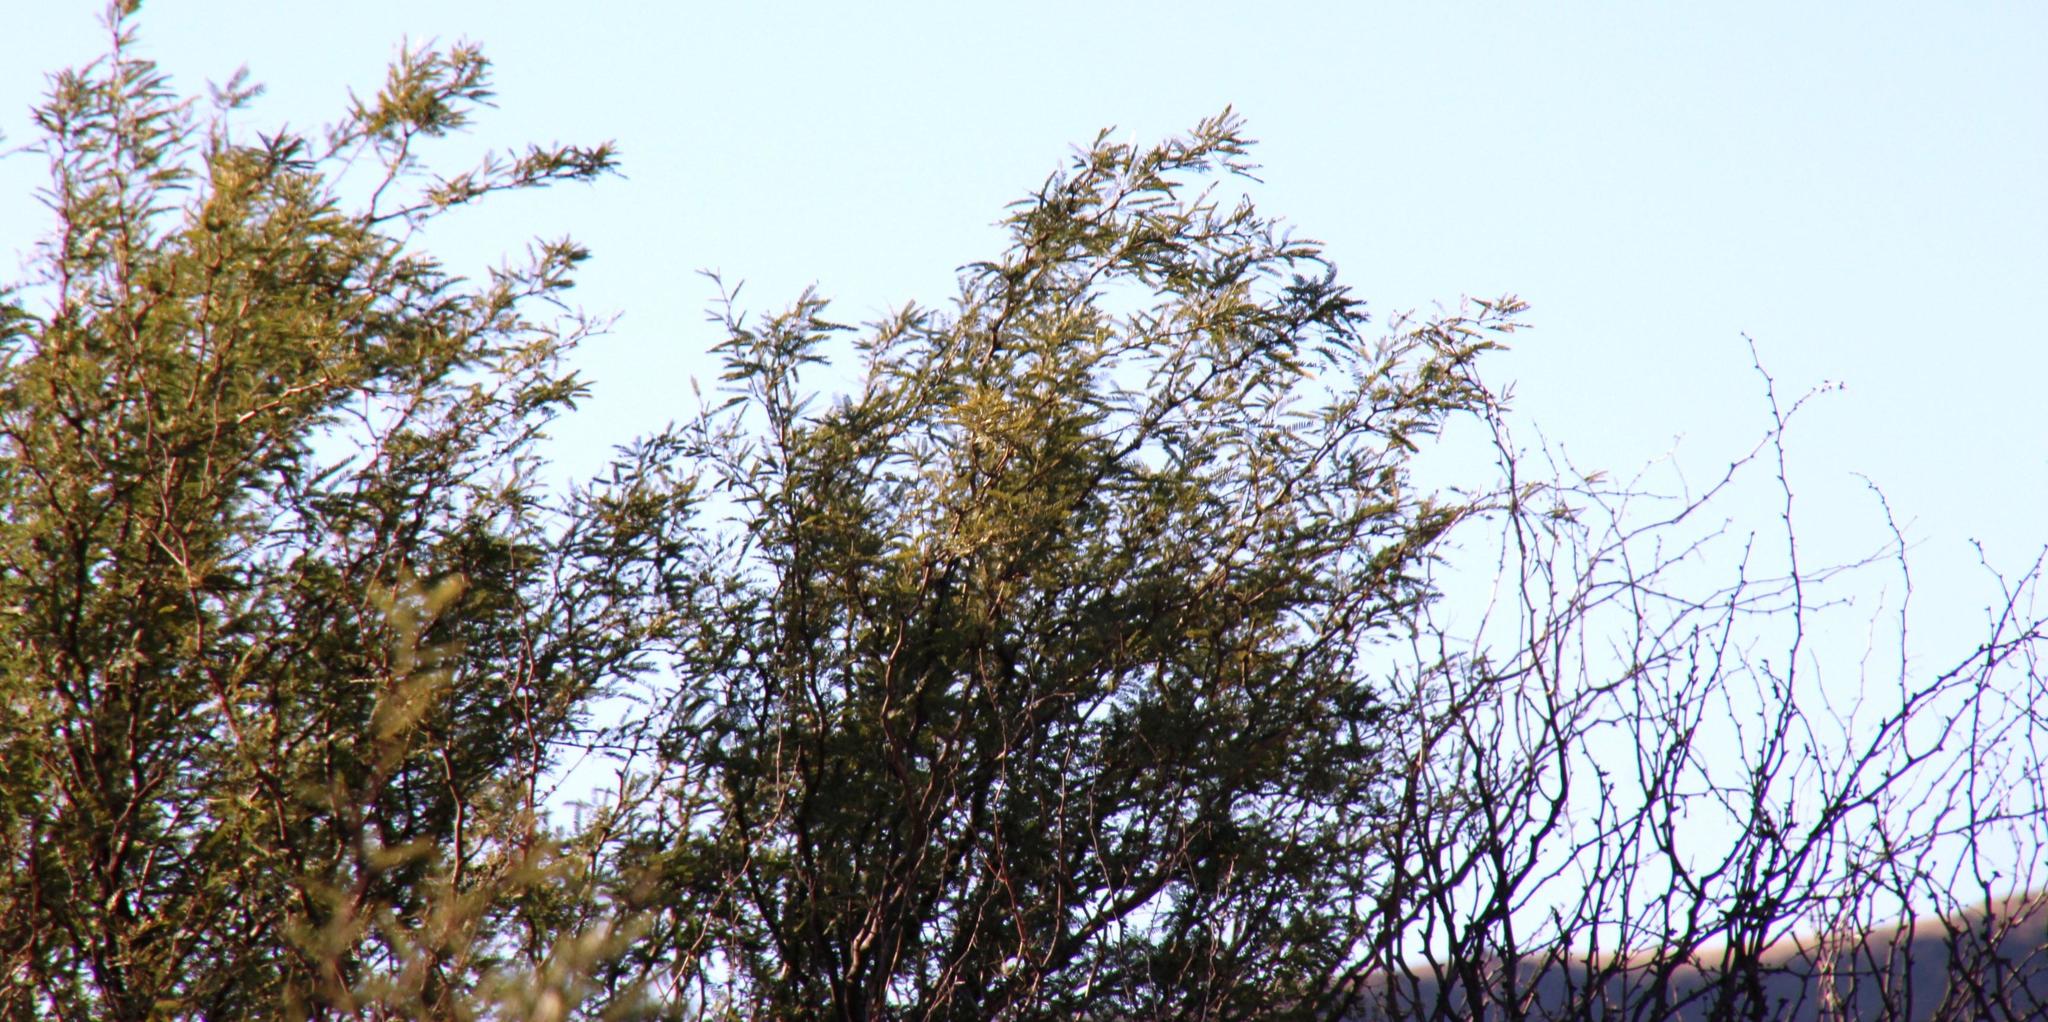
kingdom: Plantae
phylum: Tracheophyta
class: Magnoliopsida
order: Fabales
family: Fabaceae
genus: Prosopis
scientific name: Prosopis velutina
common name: Velvet mesquite
